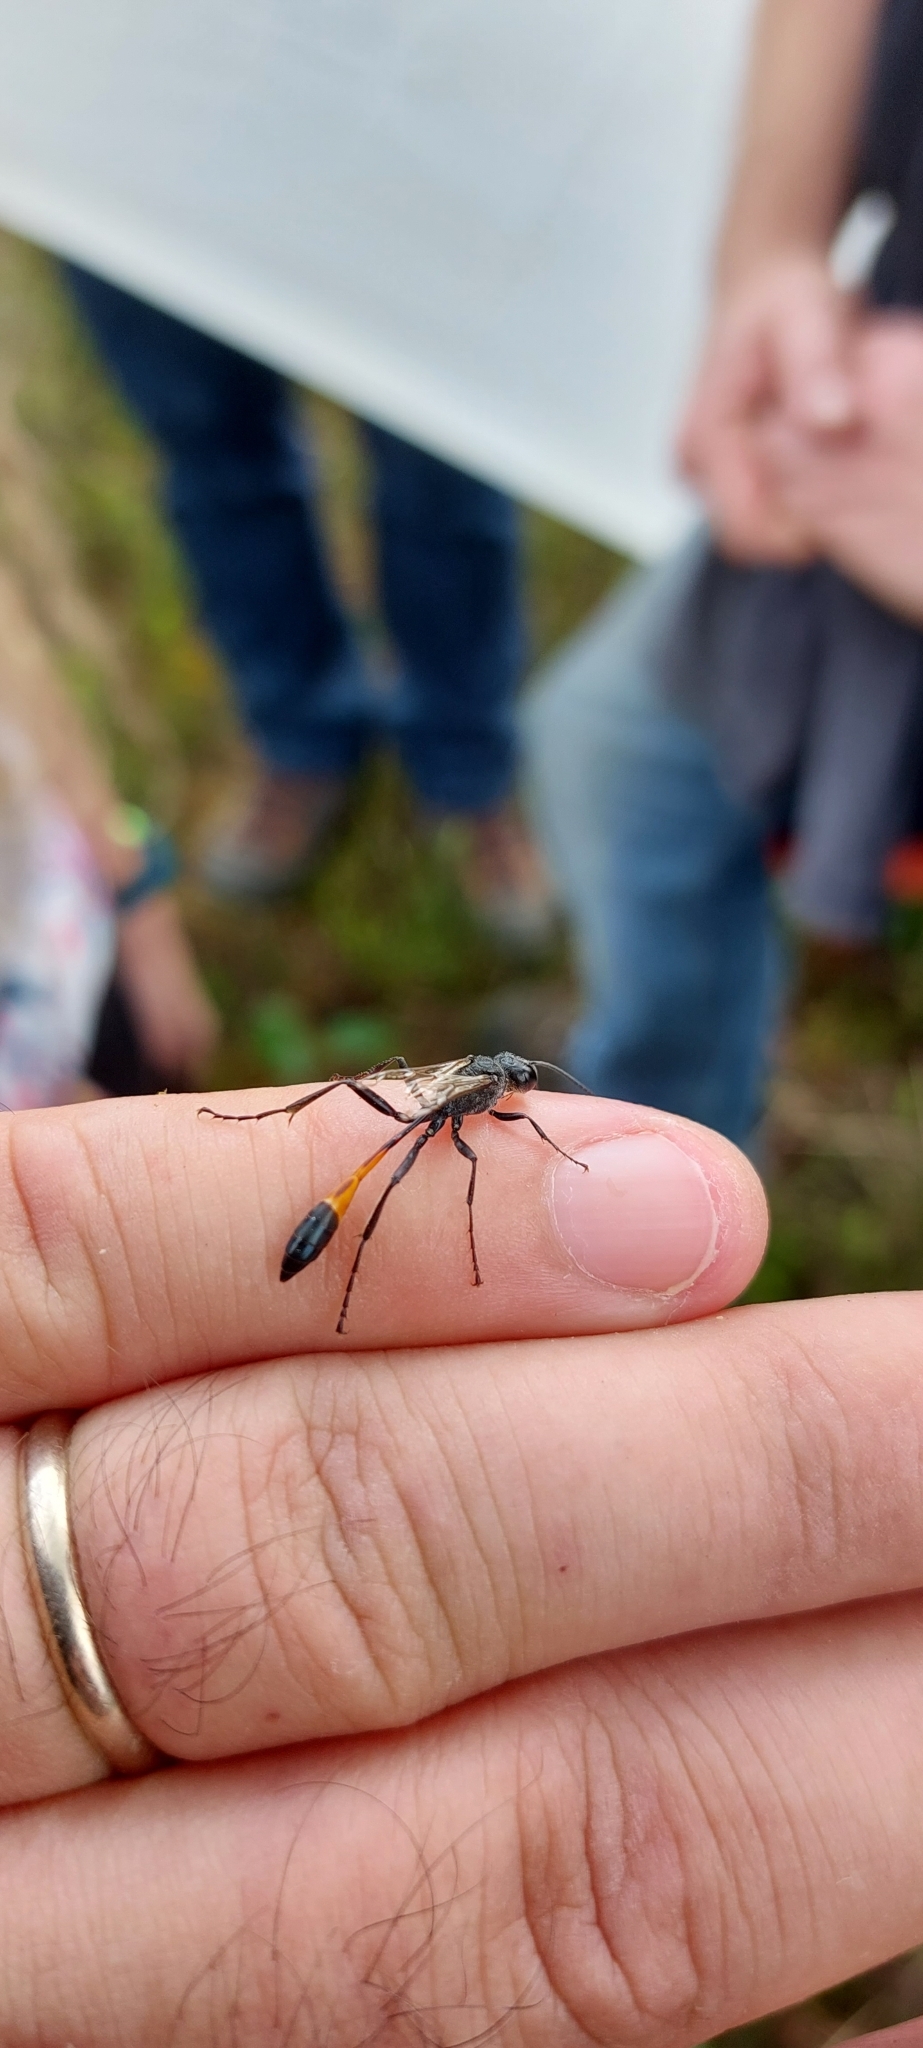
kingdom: Animalia
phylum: Arthropoda
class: Insecta
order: Hymenoptera
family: Sphecidae
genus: Ammophila
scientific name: Ammophila sabulosa
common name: Red banded sand wasp
